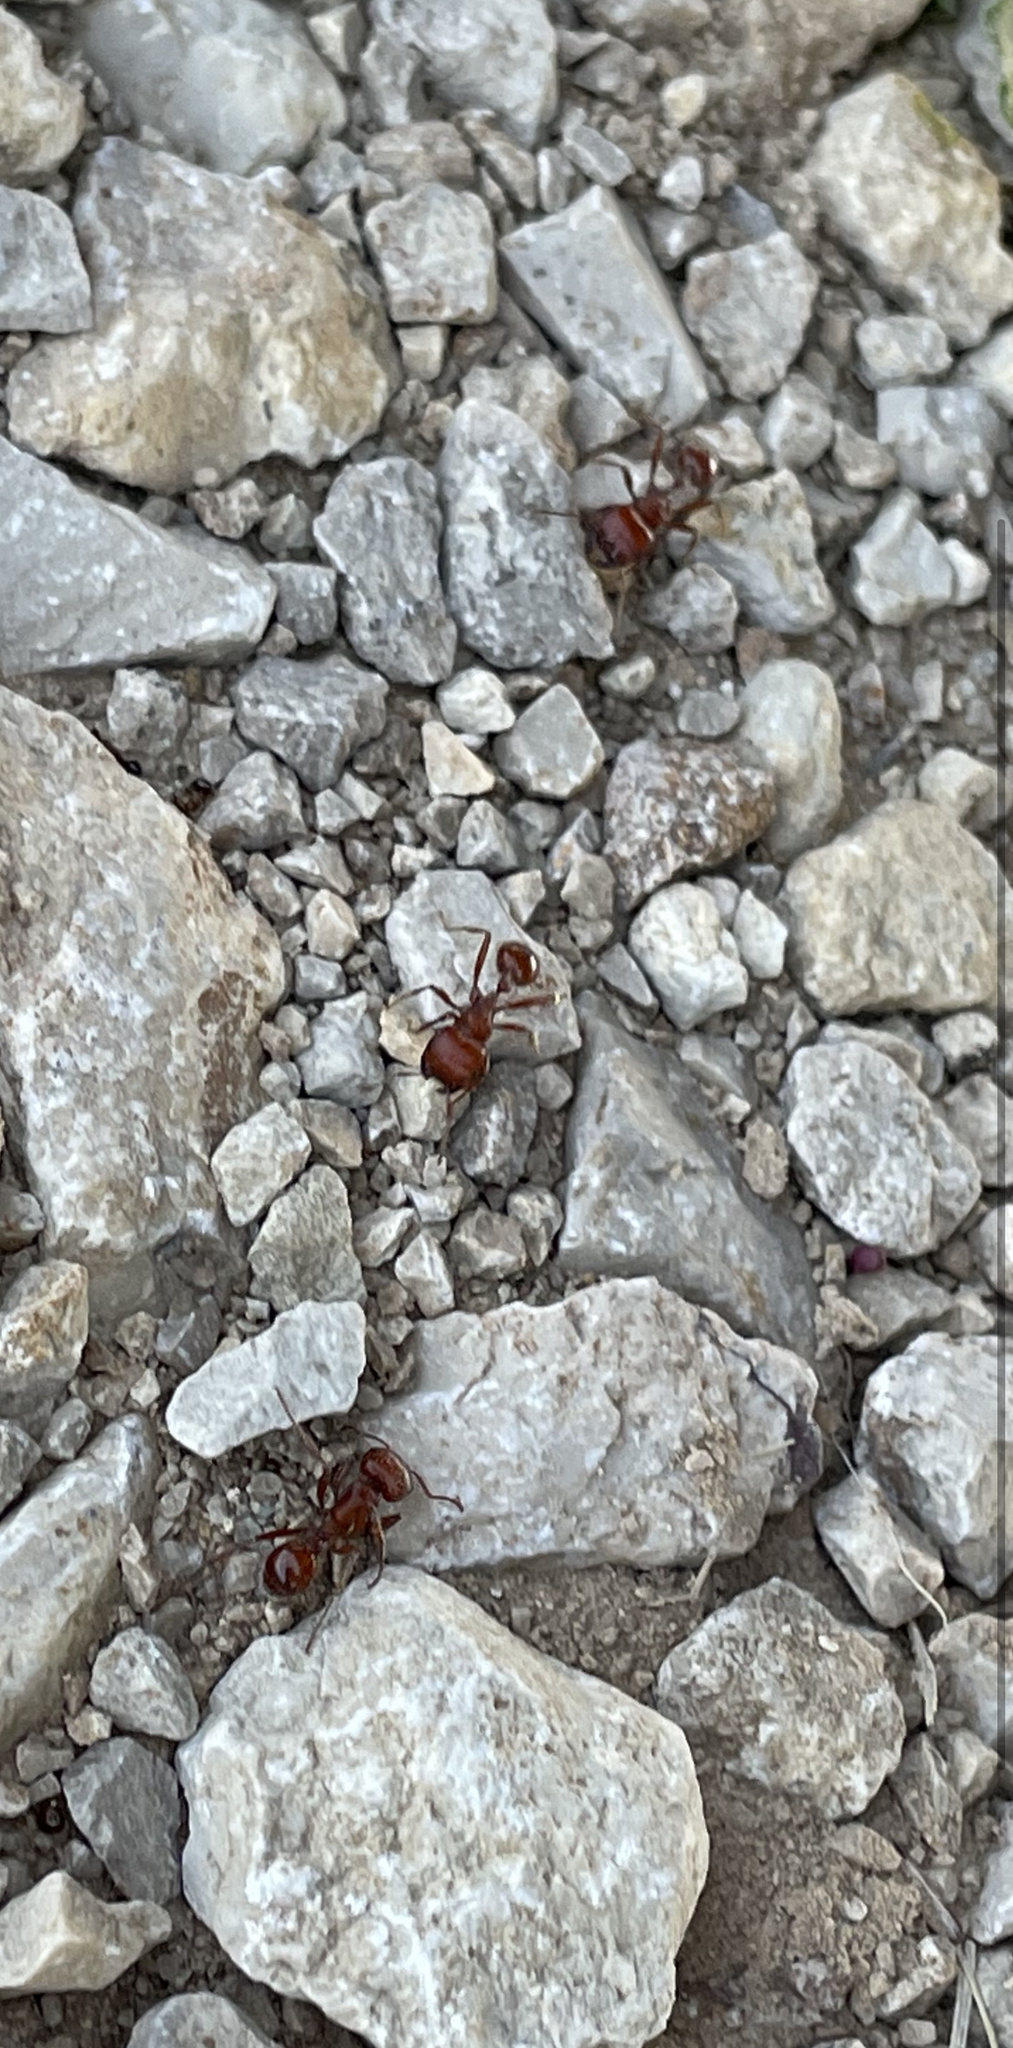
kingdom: Animalia
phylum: Arthropoda
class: Insecta
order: Hymenoptera
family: Formicidae
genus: Pogonomyrmex
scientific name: Pogonomyrmex barbatus
